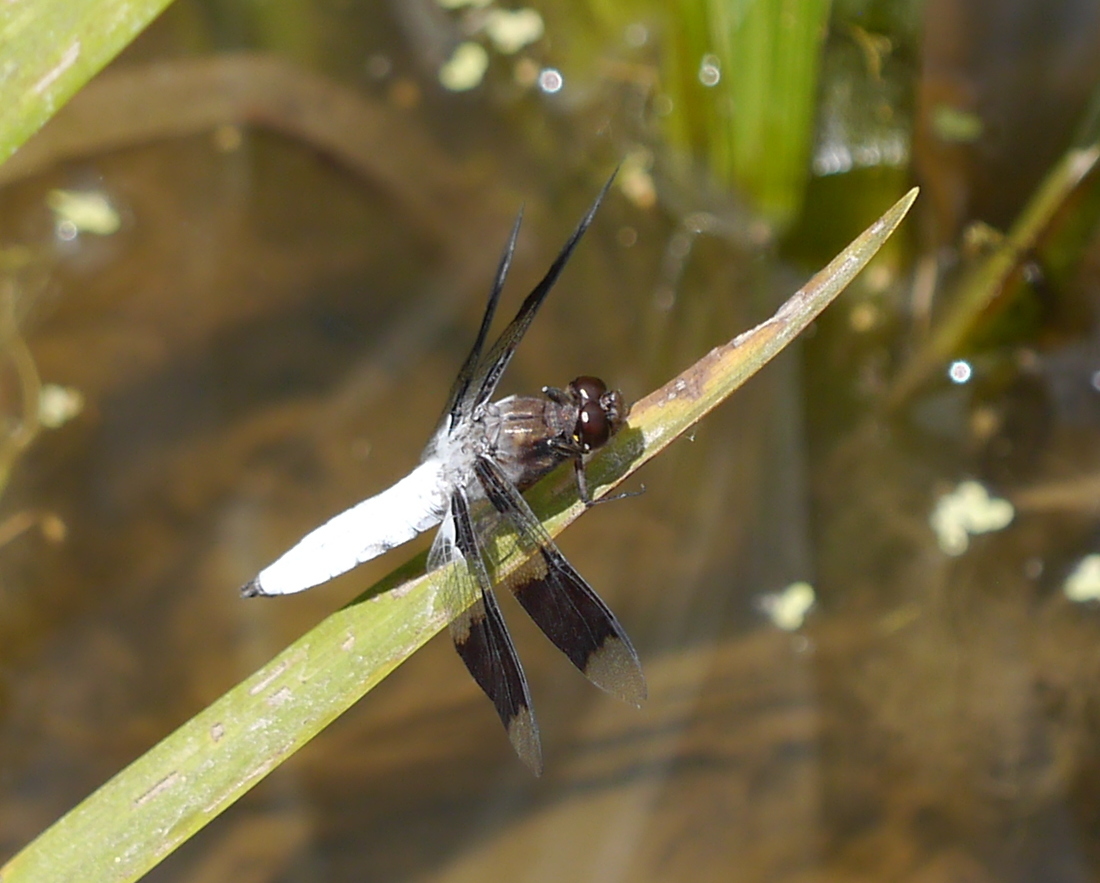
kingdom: Animalia
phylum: Arthropoda
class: Insecta
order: Odonata
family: Libellulidae
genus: Plathemis
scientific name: Plathemis lydia
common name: Common whitetail
